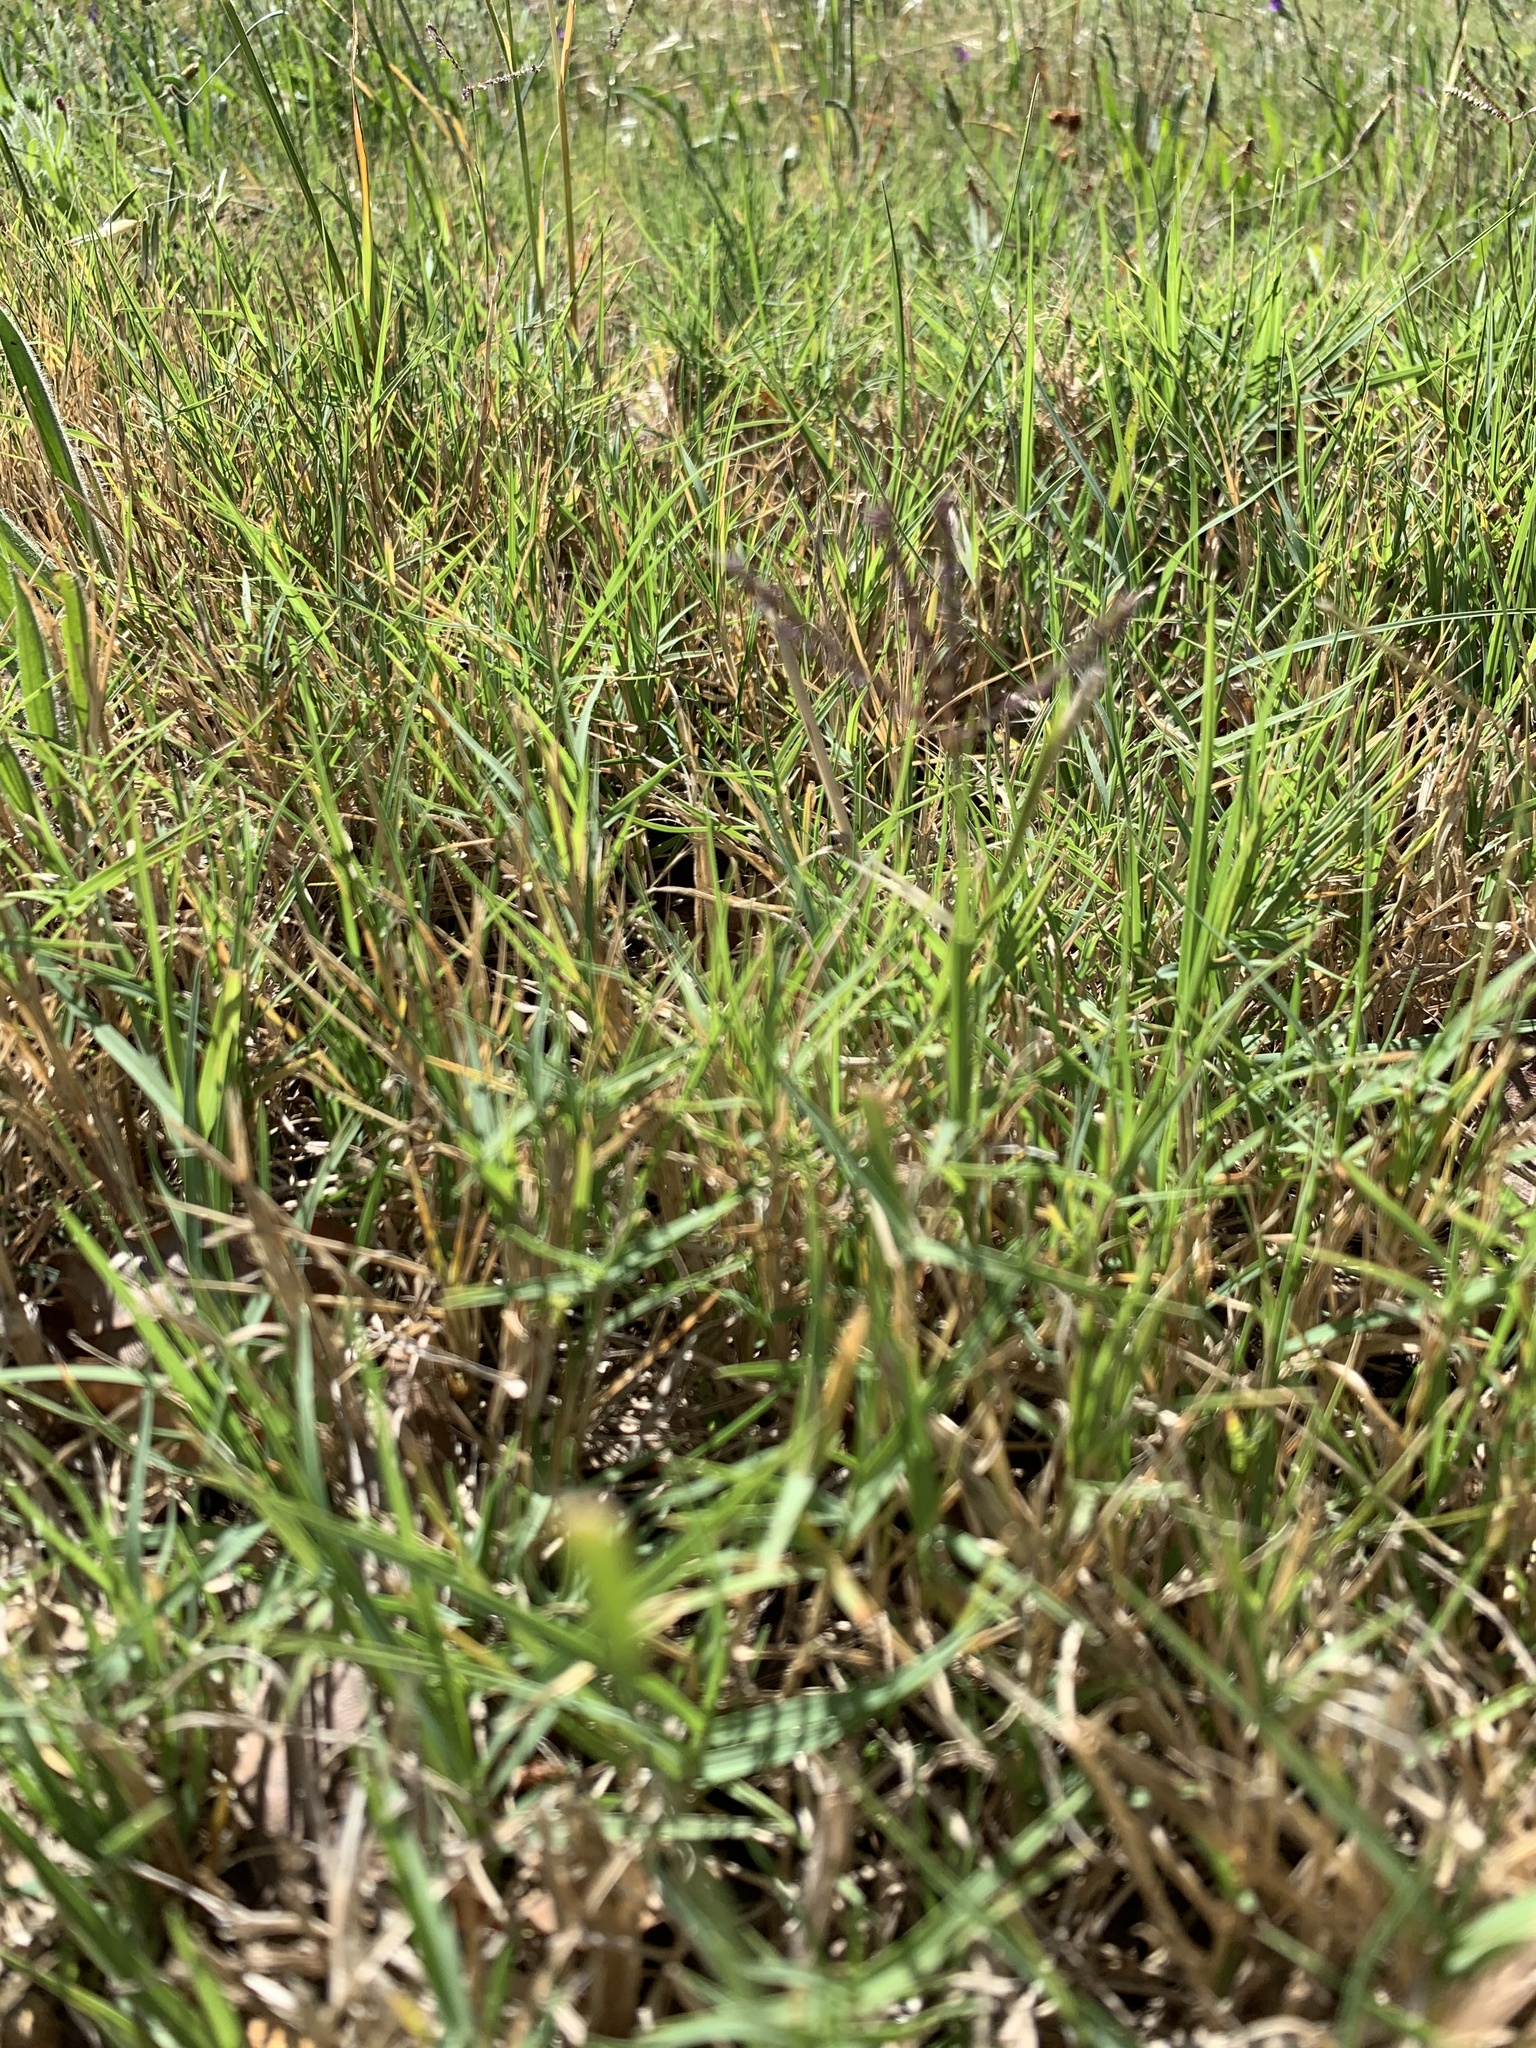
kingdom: Plantae
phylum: Tracheophyta
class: Liliopsida
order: Poales
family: Poaceae
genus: Cynodon
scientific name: Cynodon dactylon
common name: Bermuda grass
